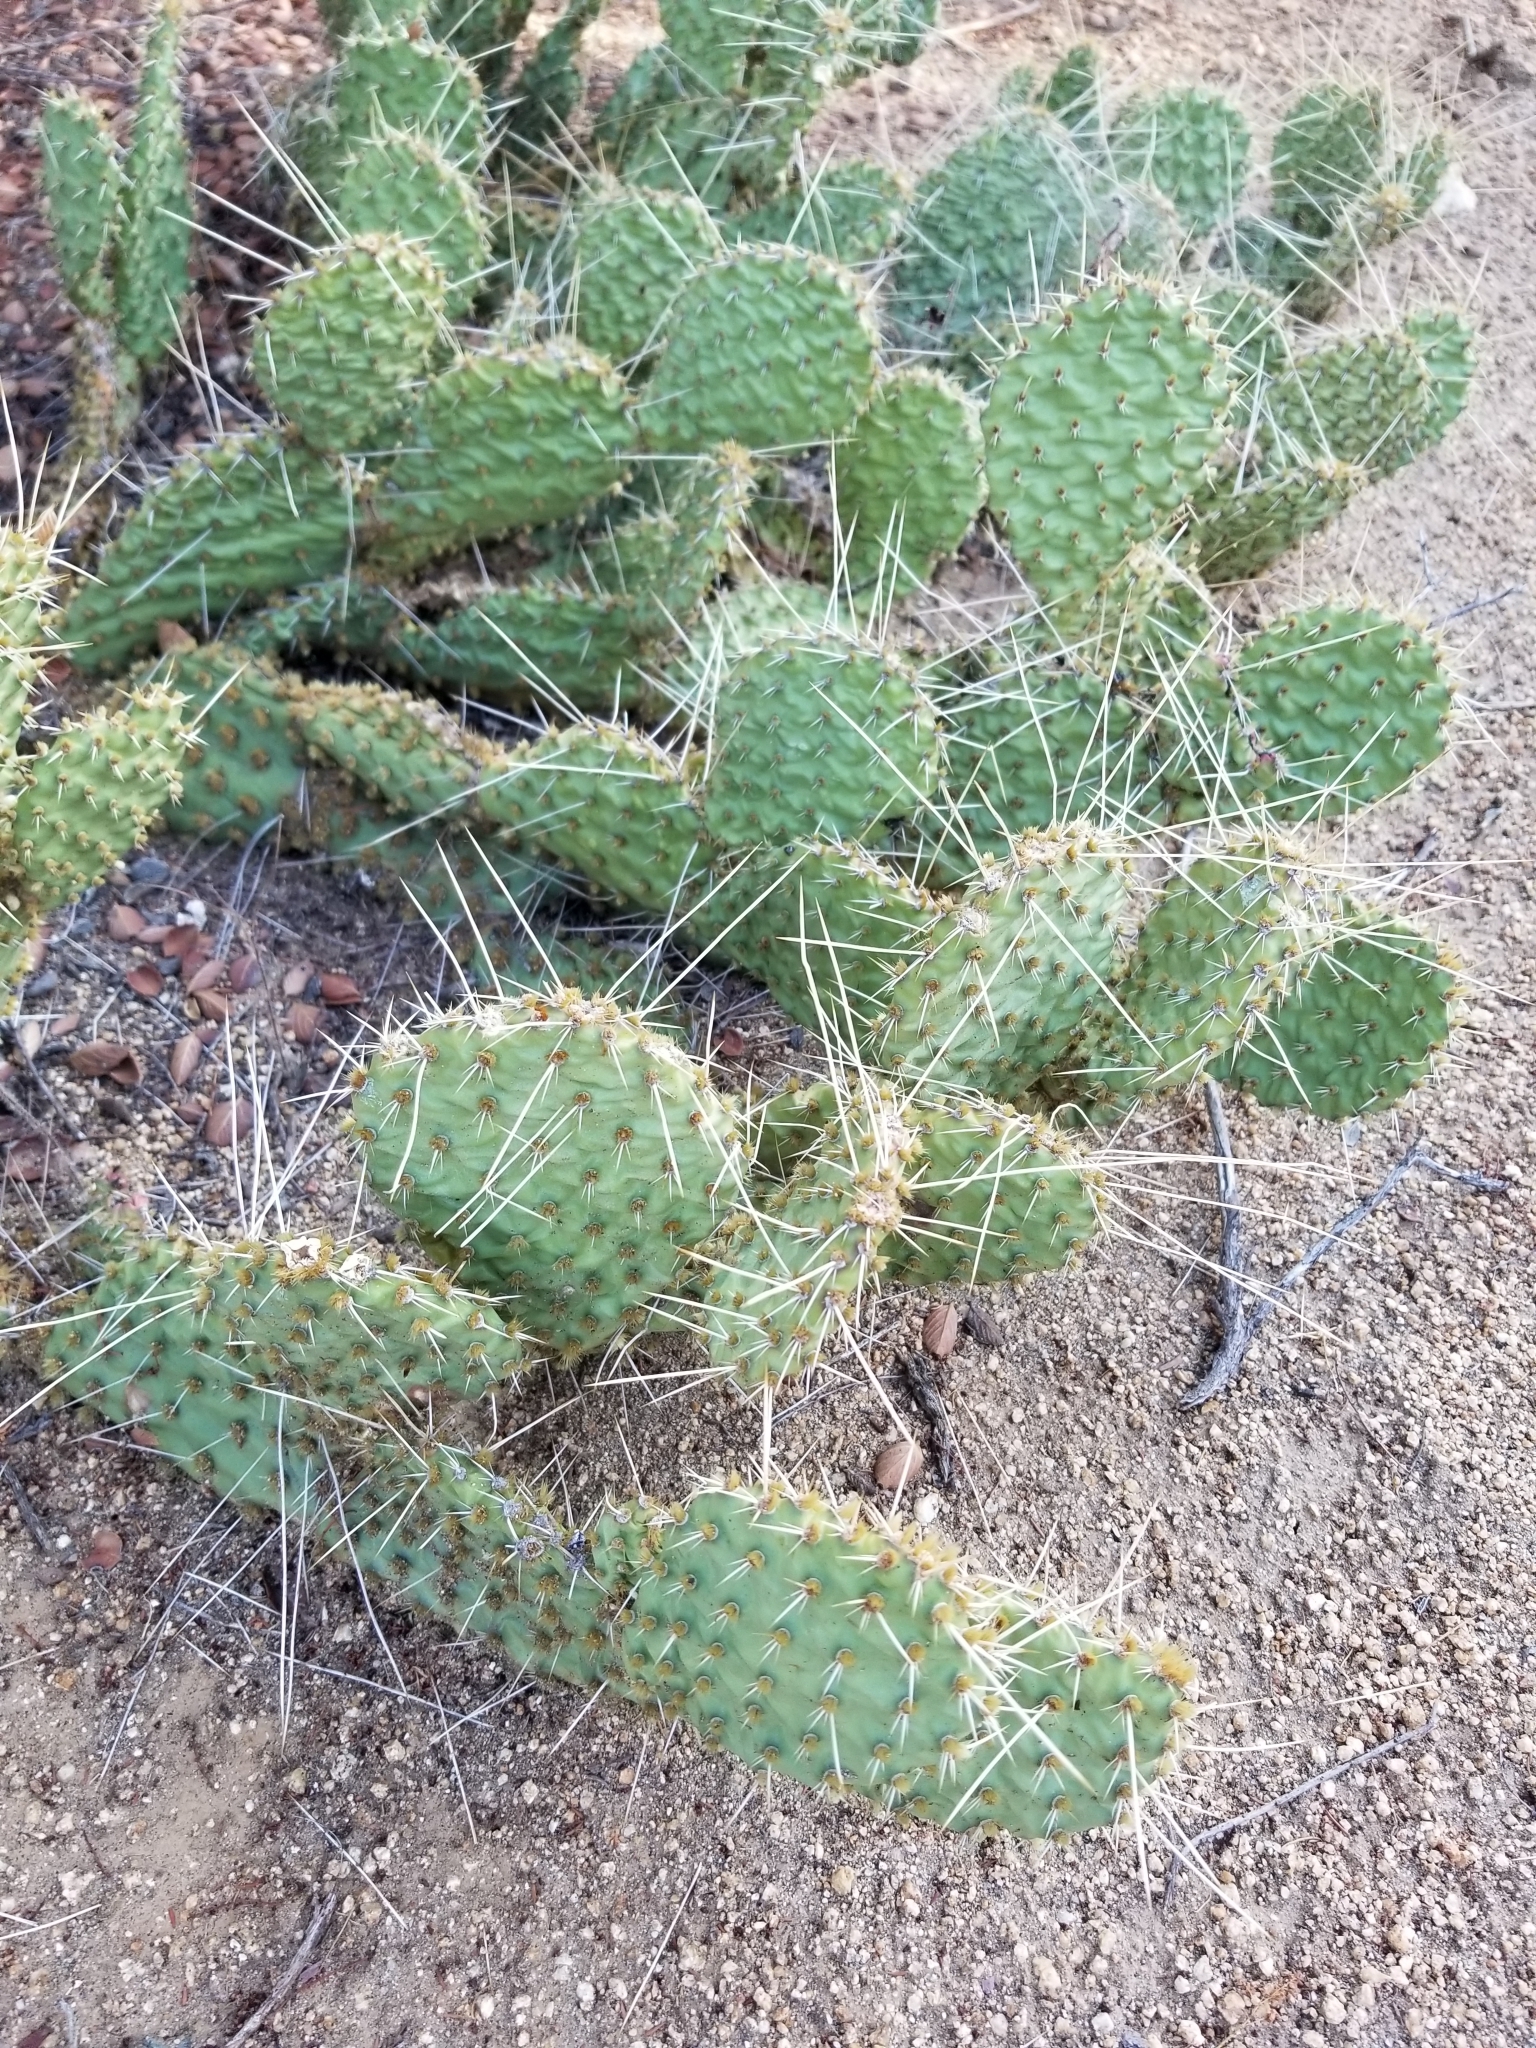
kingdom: Plantae
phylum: Tracheophyta
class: Magnoliopsida
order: Caryophyllales
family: Cactaceae
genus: Opuntia
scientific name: Opuntia polyacantha
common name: Plains prickly-pear
